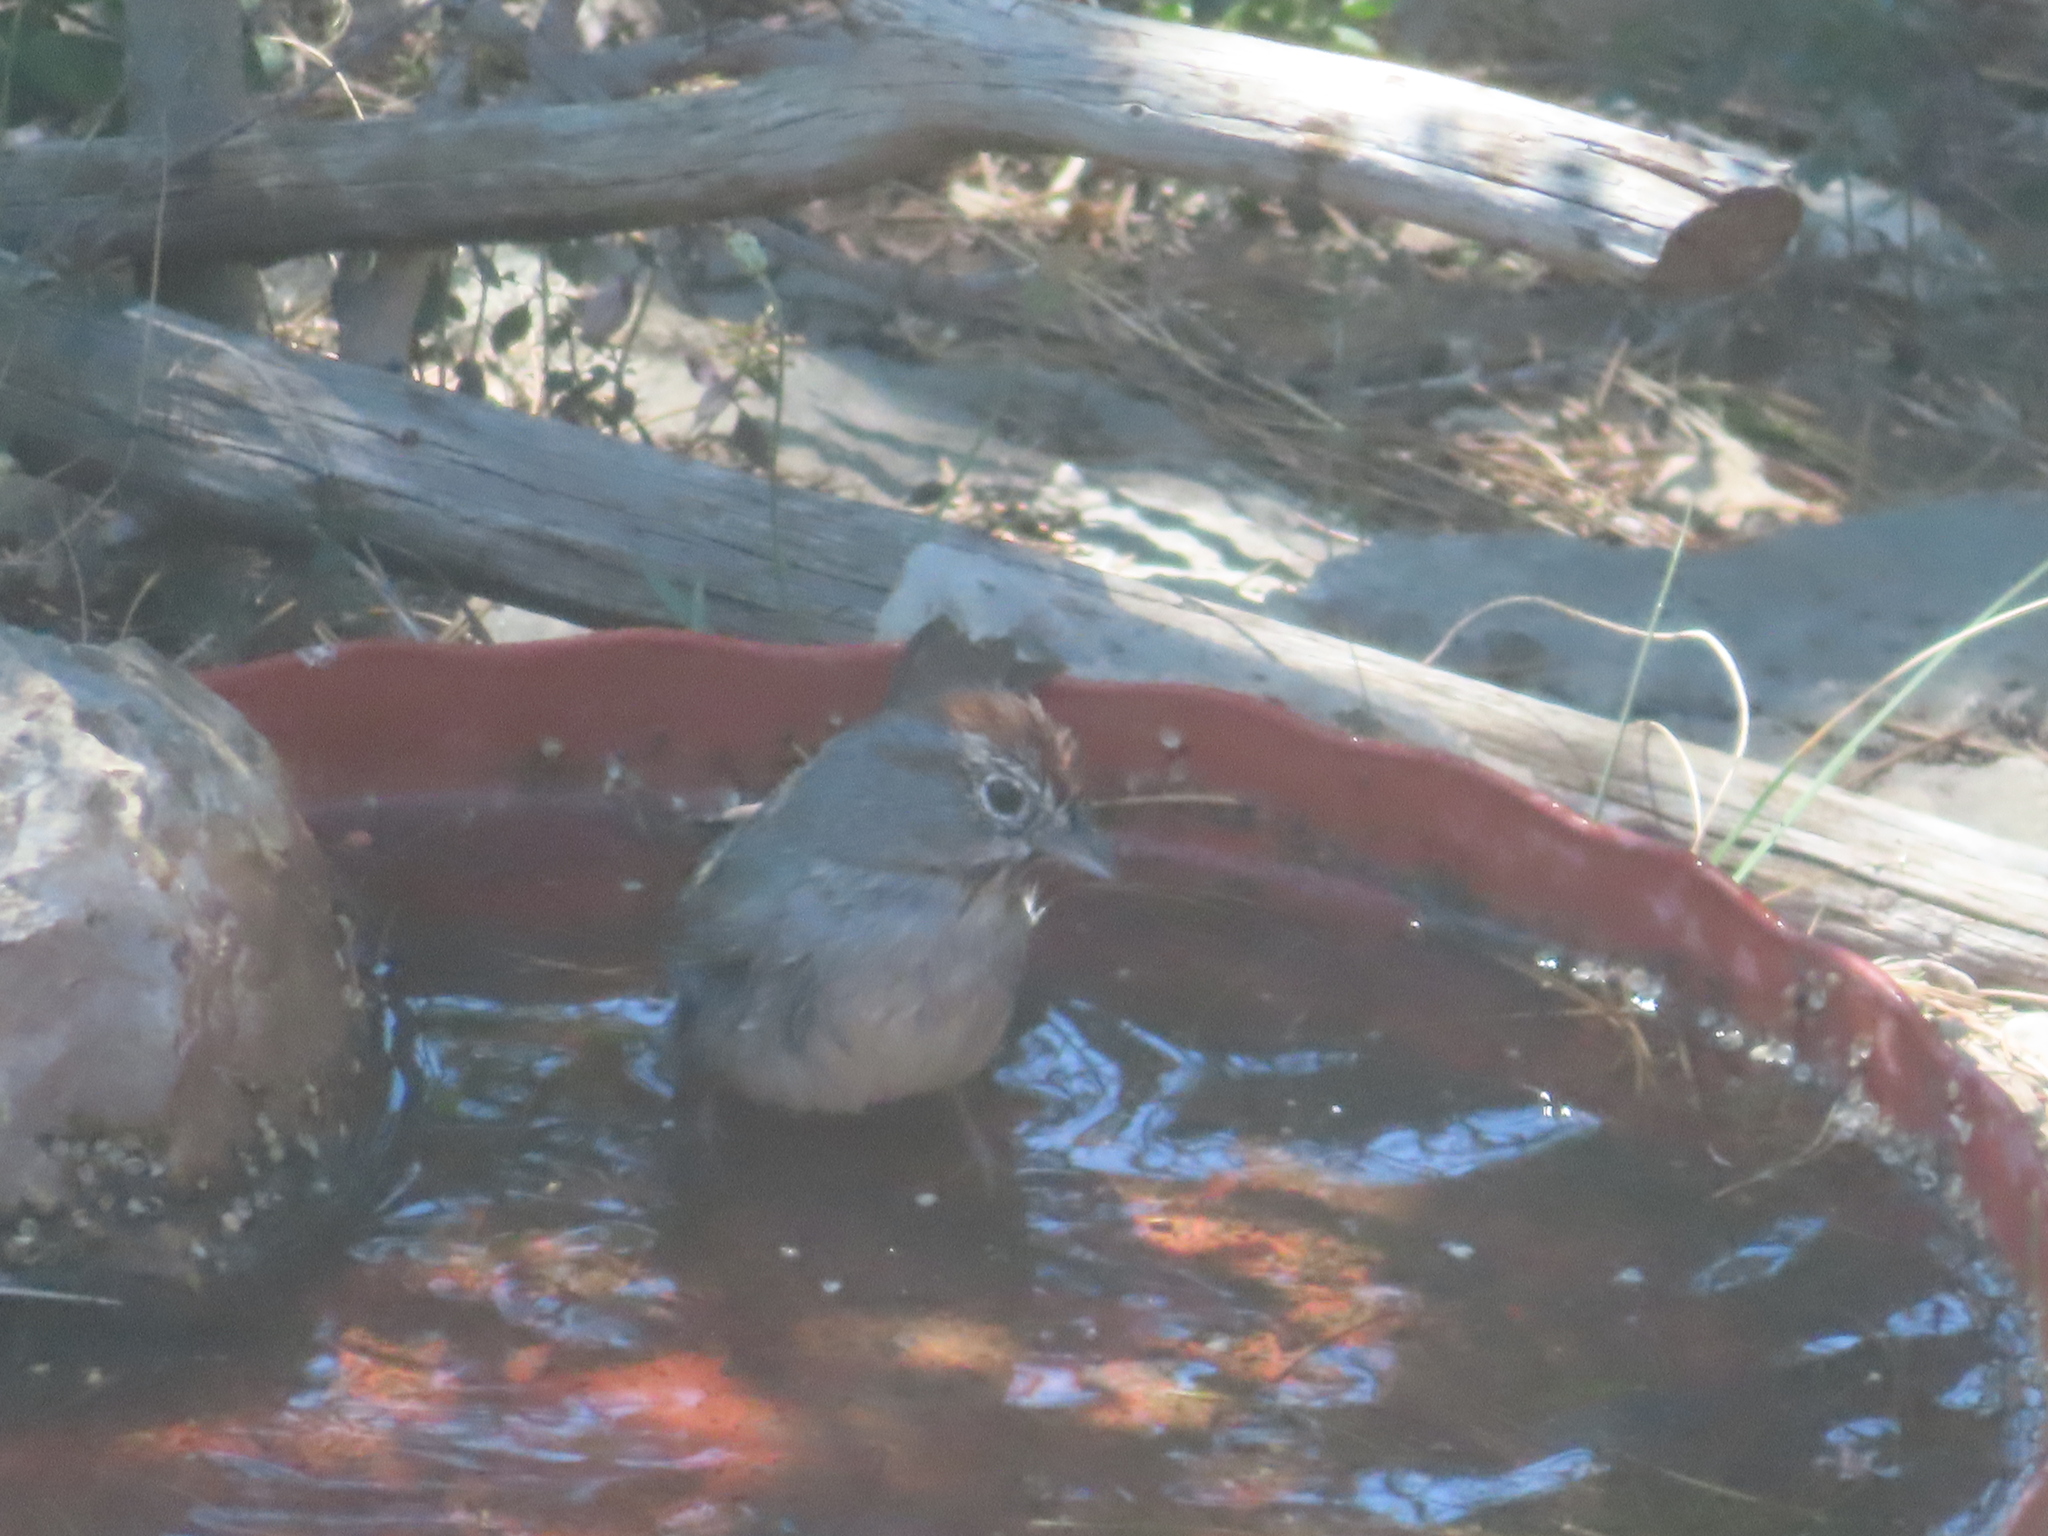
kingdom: Animalia
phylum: Chordata
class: Aves
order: Passeriformes
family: Passerellidae
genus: Aimophila
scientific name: Aimophila ruficeps
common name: Rufous-crowned sparrow
